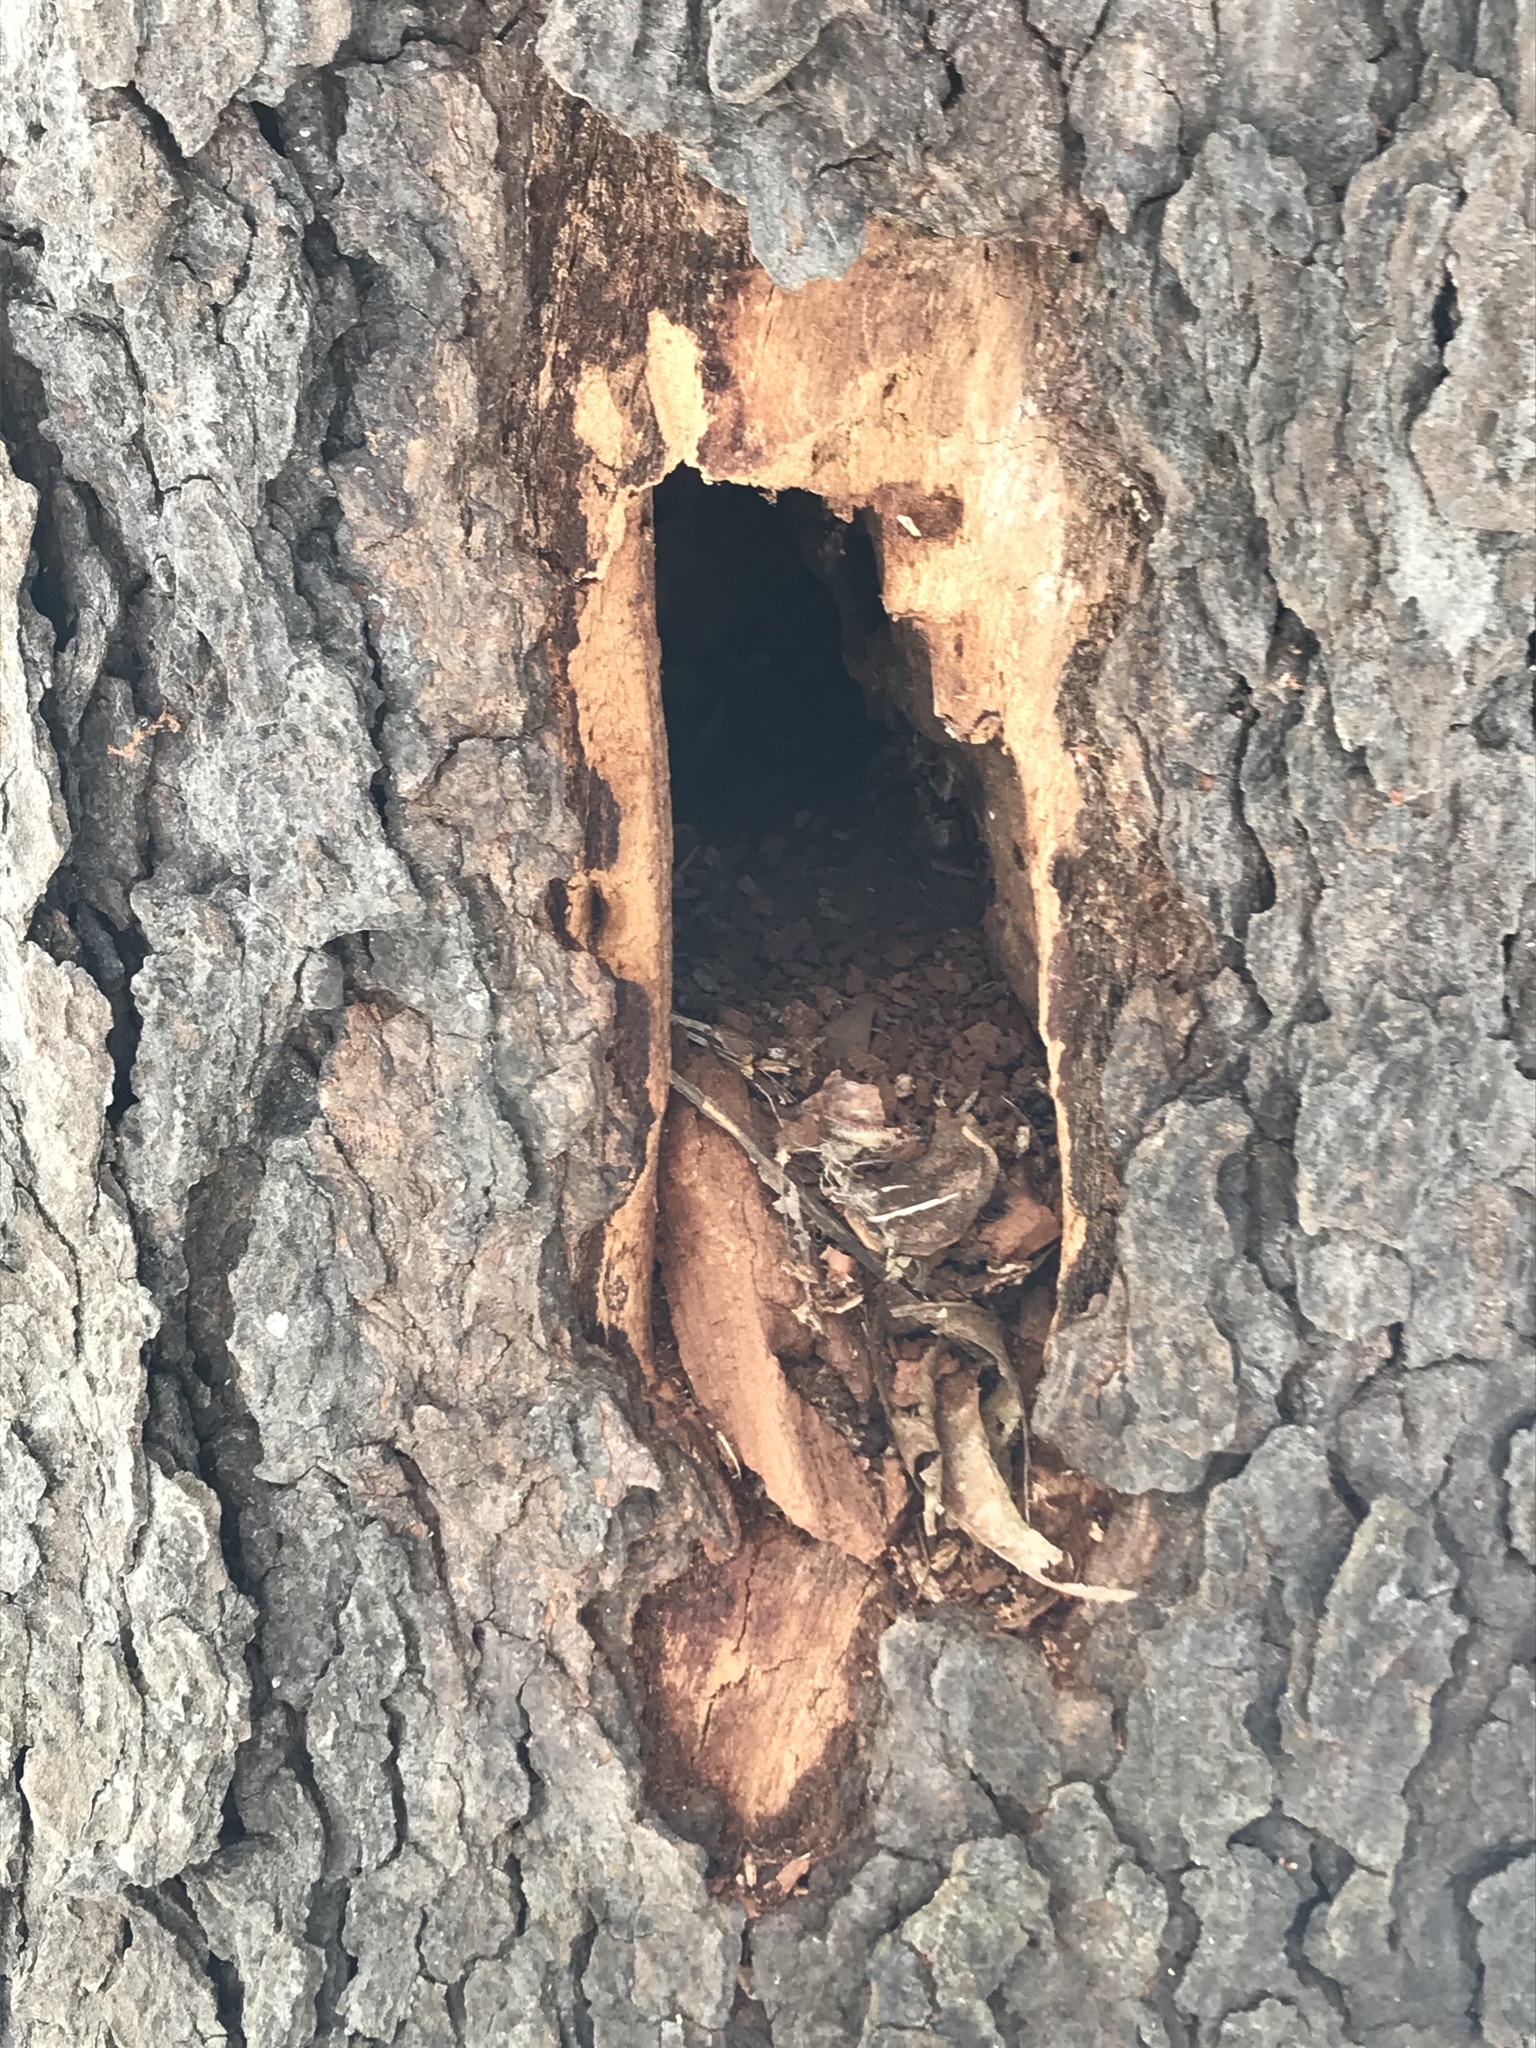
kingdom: Animalia
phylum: Chordata
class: Aves
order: Piciformes
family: Picidae
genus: Dryocopus
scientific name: Dryocopus pileatus
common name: Pileated woodpecker
